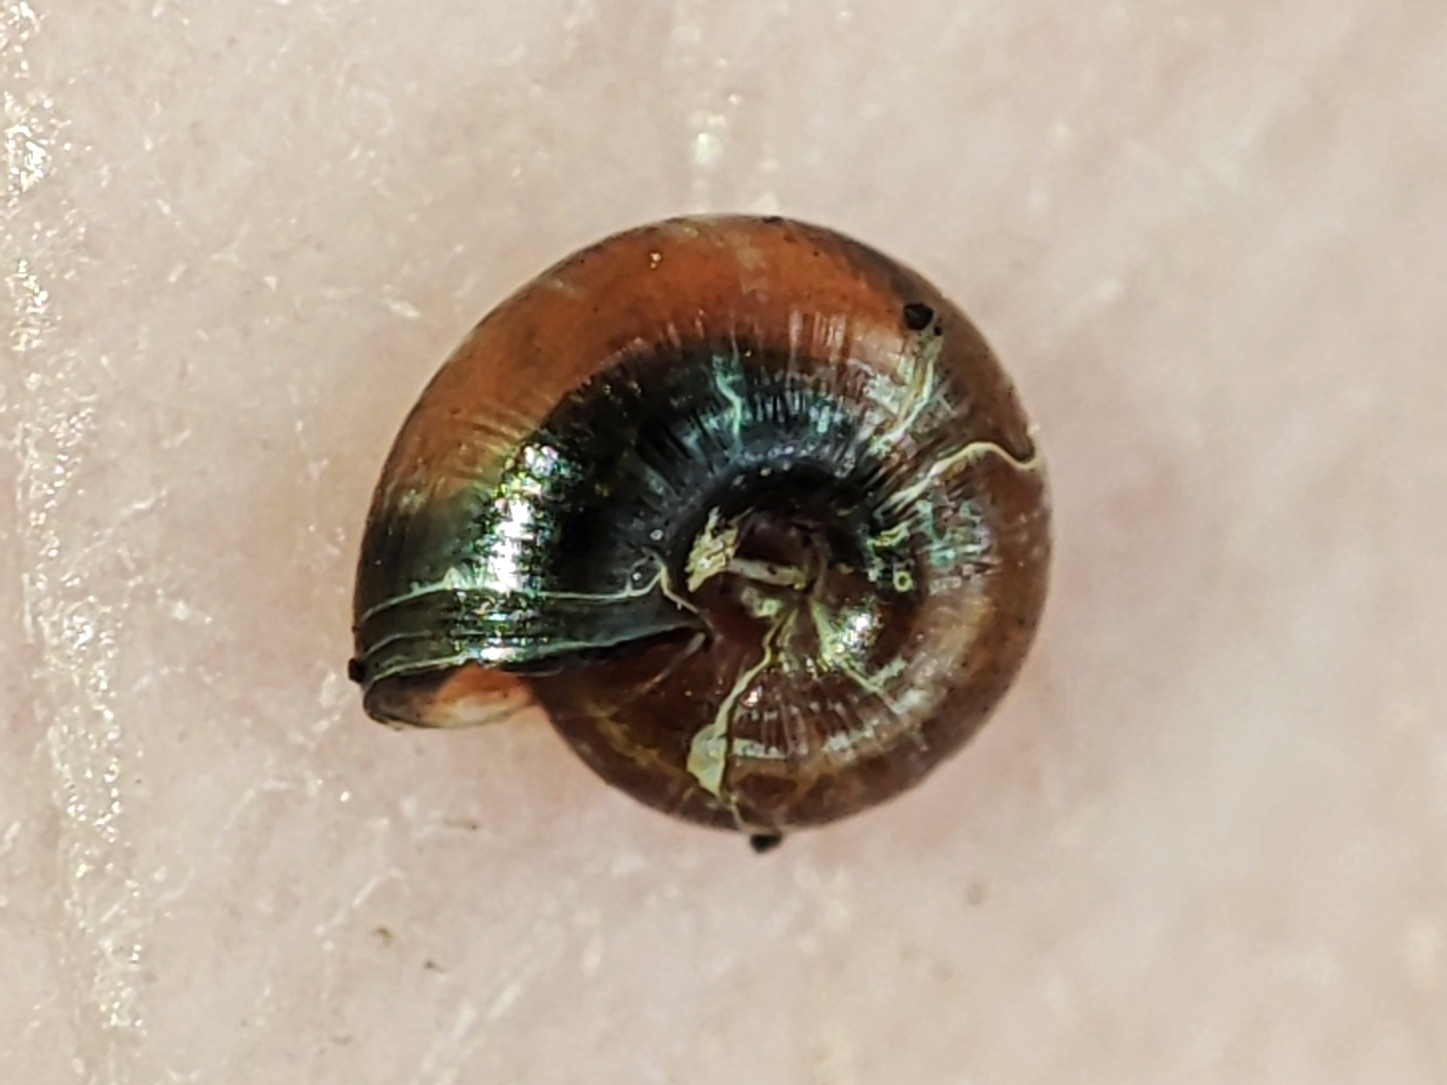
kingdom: Animalia
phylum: Mollusca
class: Gastropoda
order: Stylommatophora
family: Gastrodontidae
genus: Zonitoides
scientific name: Zonitoides nitidus
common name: Shiny glass snail
